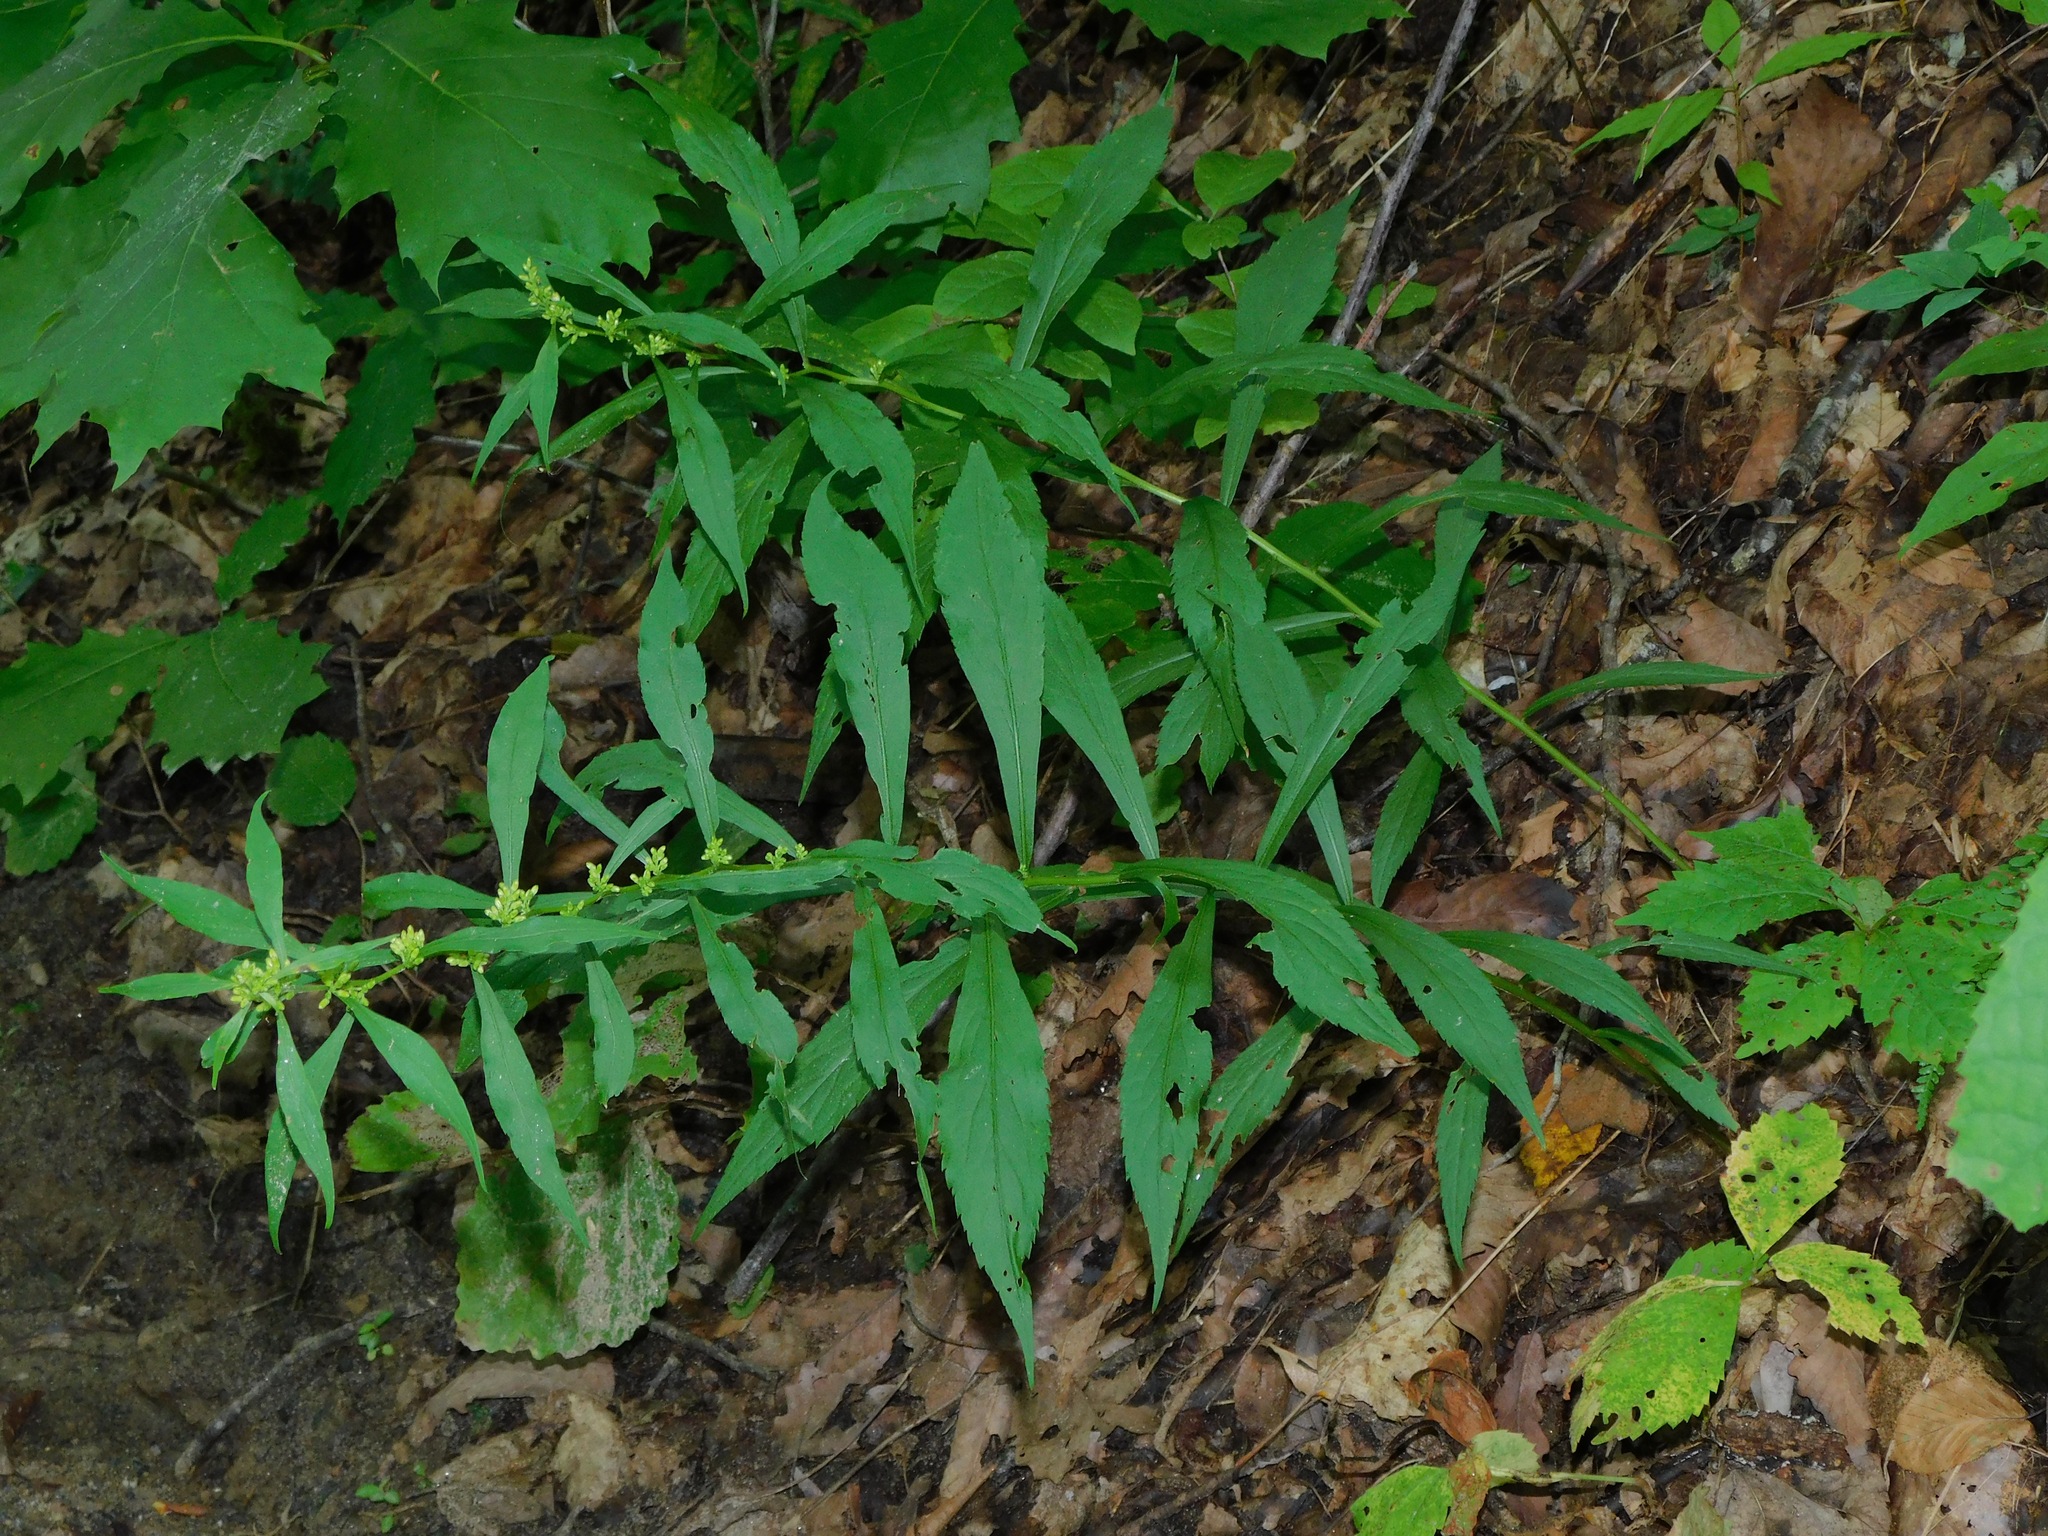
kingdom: Plantae
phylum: Tracheophyta
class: Magnoliopsida
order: Asterales
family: Asteraceae
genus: Solidago
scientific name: Solidago curtisii
